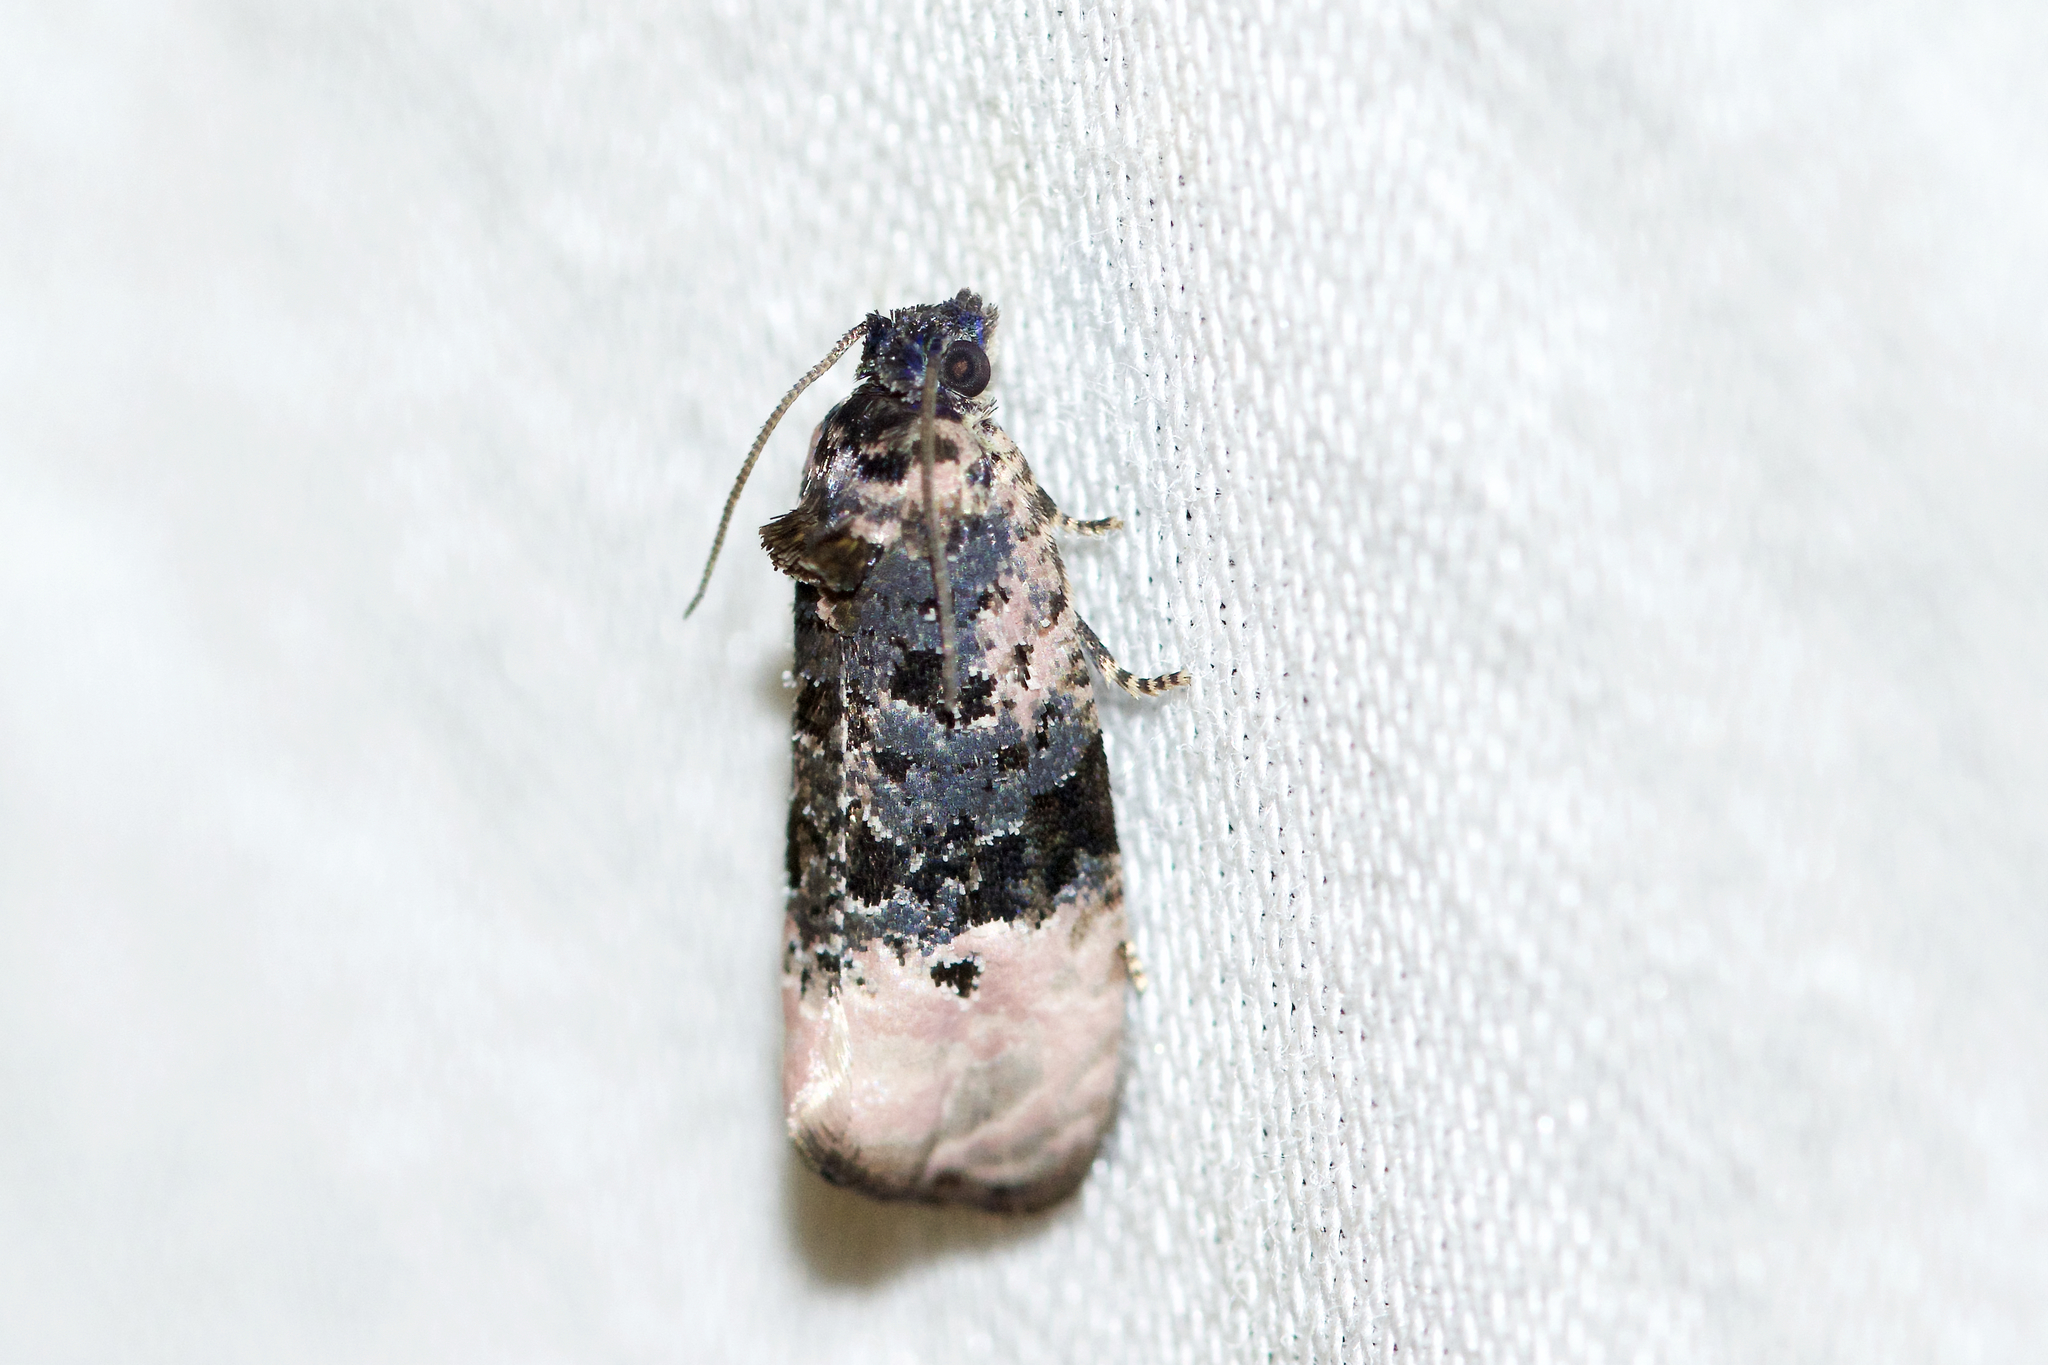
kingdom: Animalia
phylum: Arthropoda
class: Insecta
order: Lepidoptera
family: Tortricidae
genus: Hedya
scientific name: Hedya separatana
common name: Pink-washed leafroller moth
